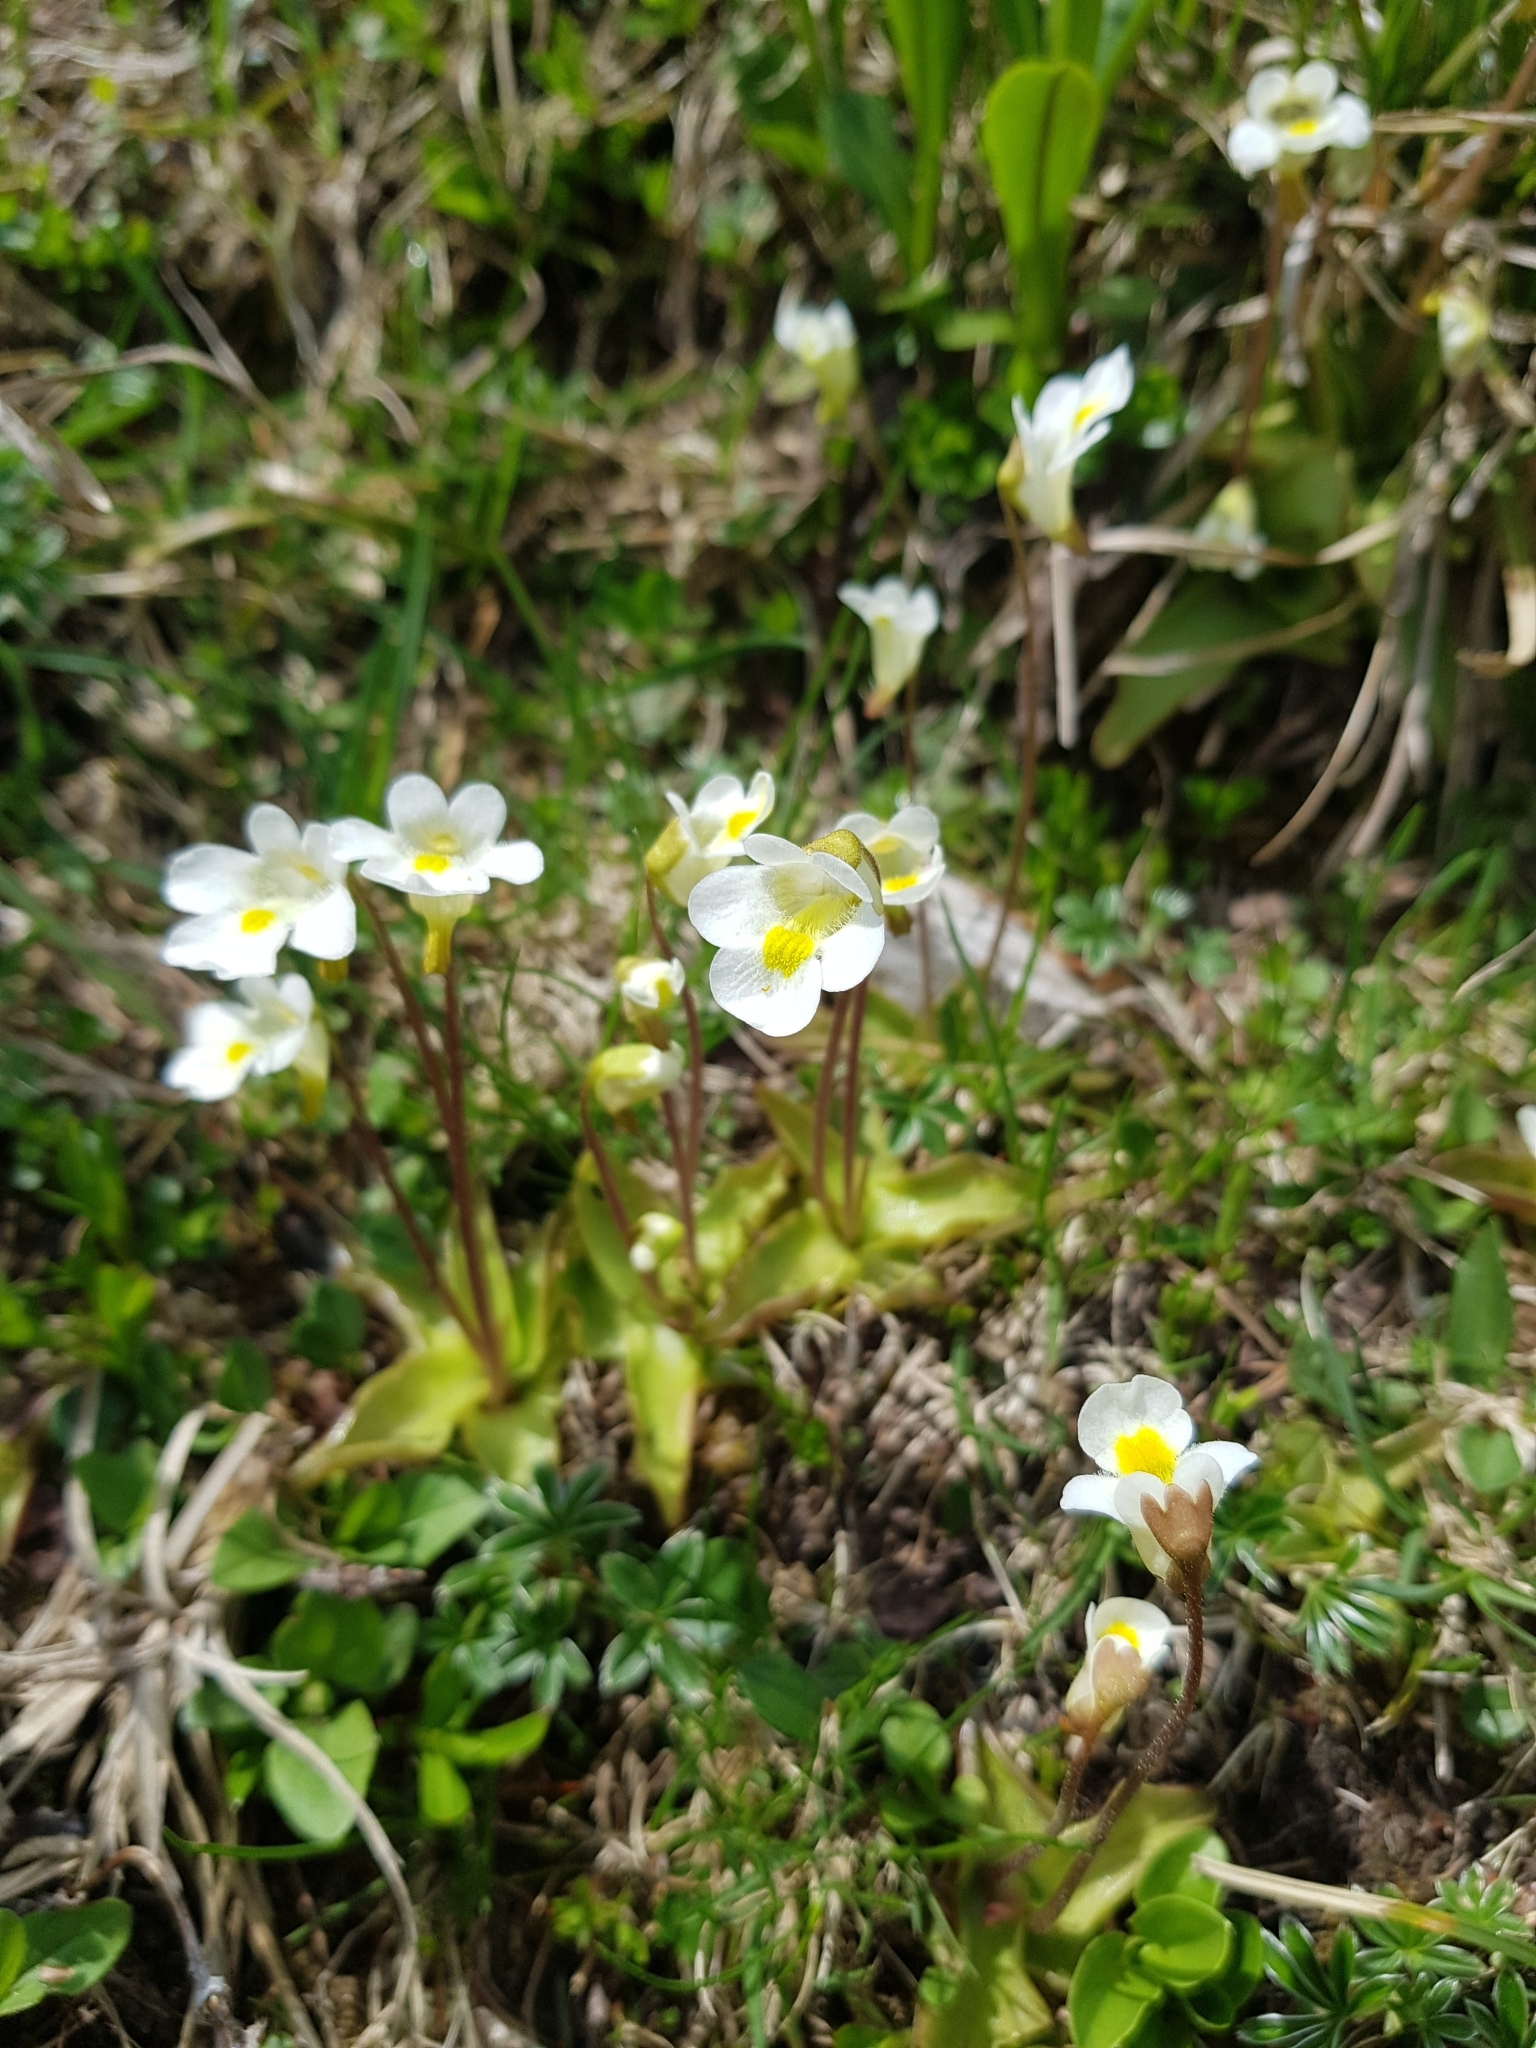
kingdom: Plantae
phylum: Tracheophyta
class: Magnoliopsida
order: Lamiales
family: Lentibulariaceae
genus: Pinguicula
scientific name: Pinguicula alpina
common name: Alpine butterwort
